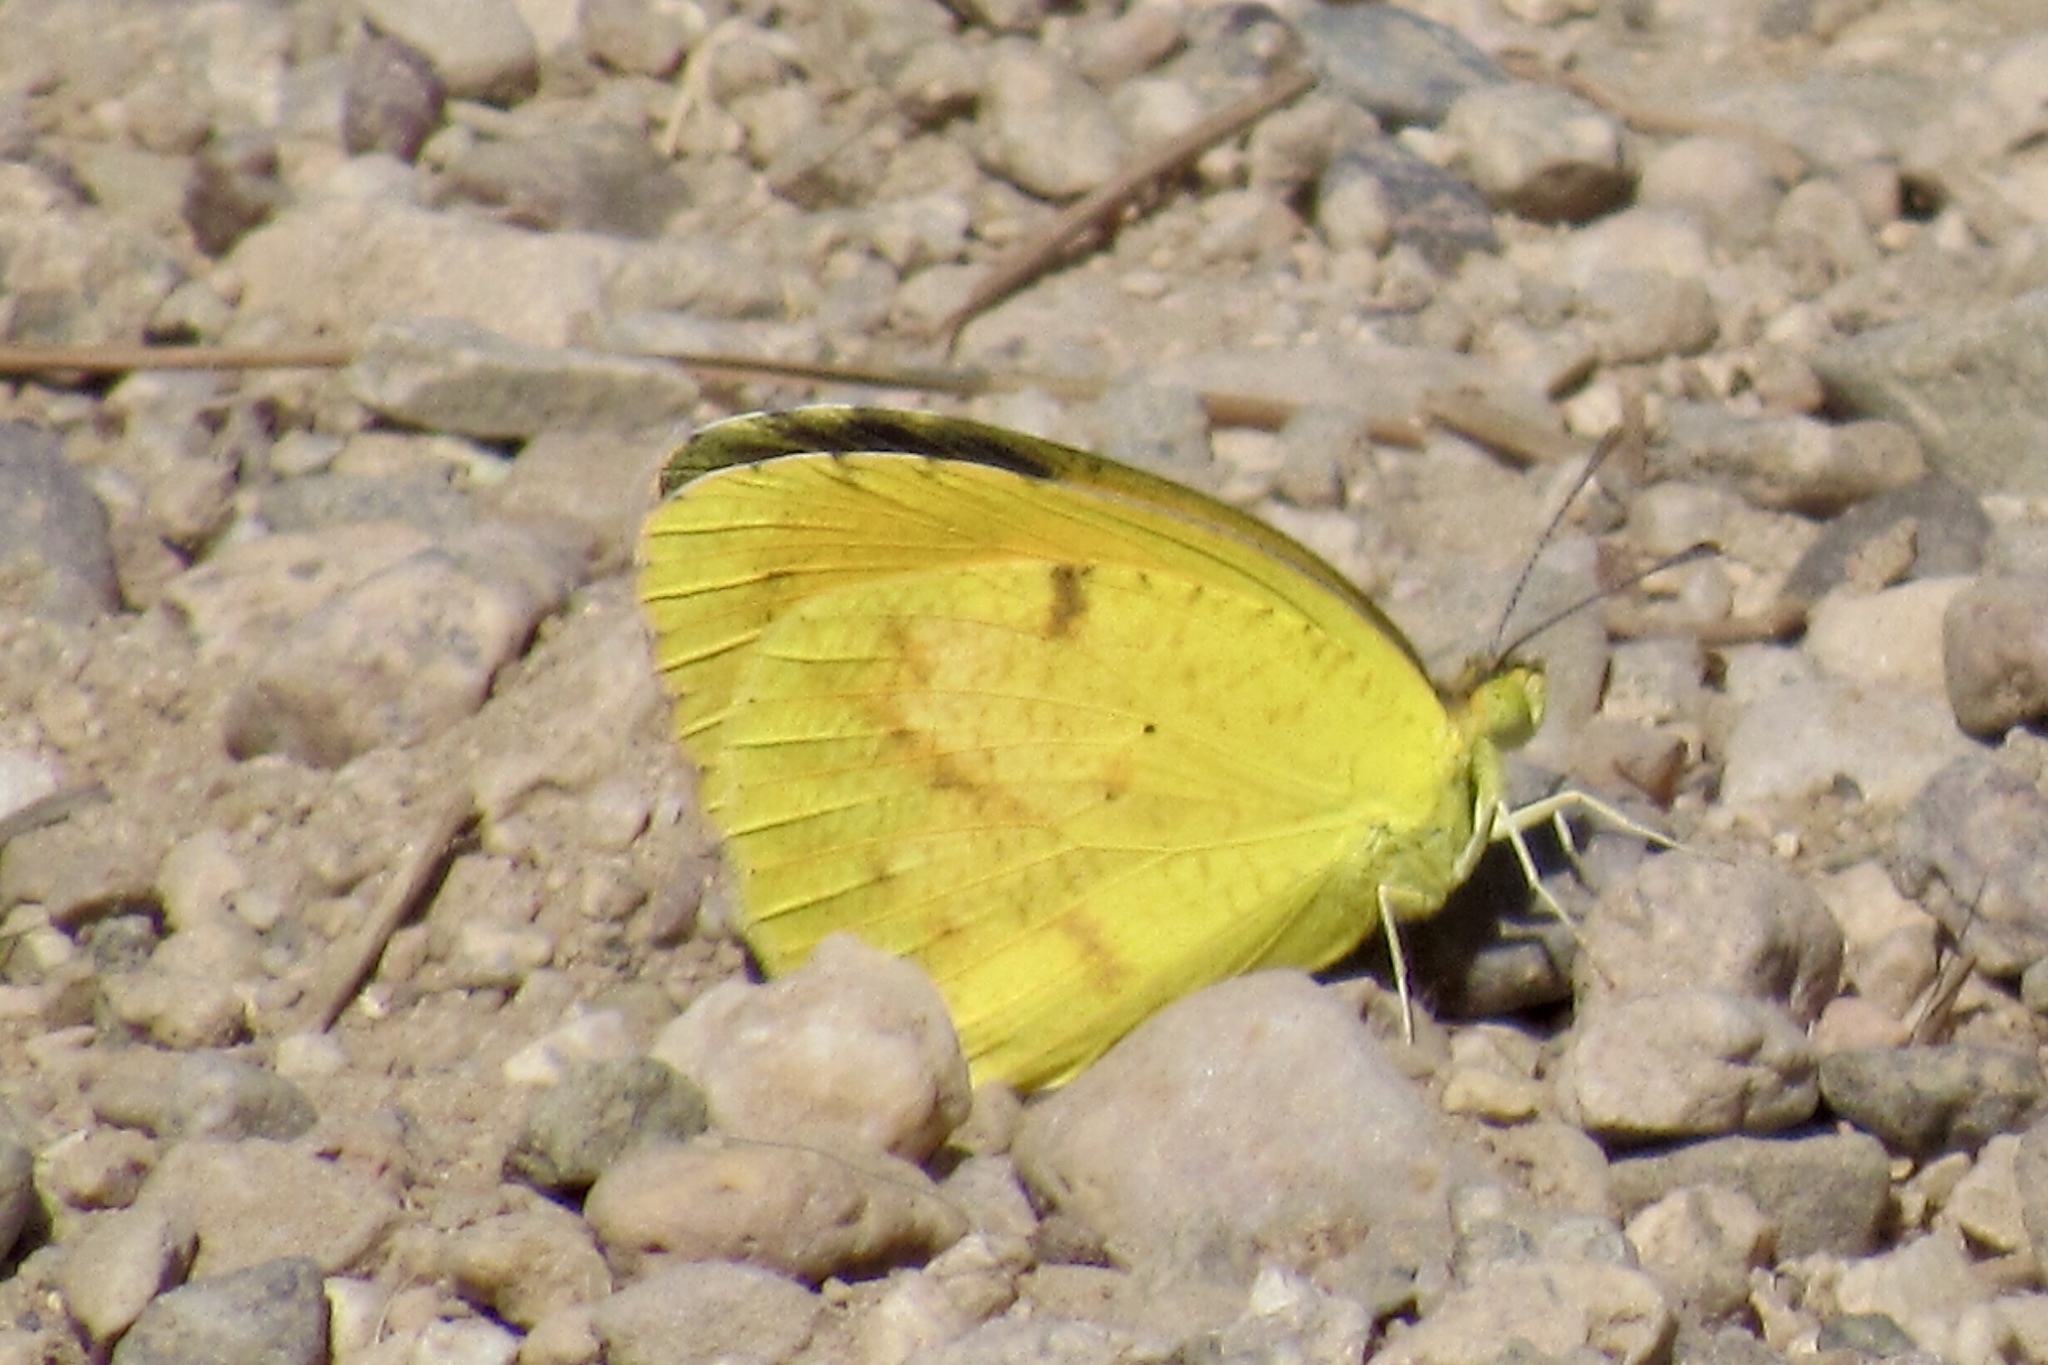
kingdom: Animalia
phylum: Arthropoda
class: Insecta
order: Lepidoptera
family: Pieridae
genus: Abaeis
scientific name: Abaeis nicippe
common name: Sleepy orange
